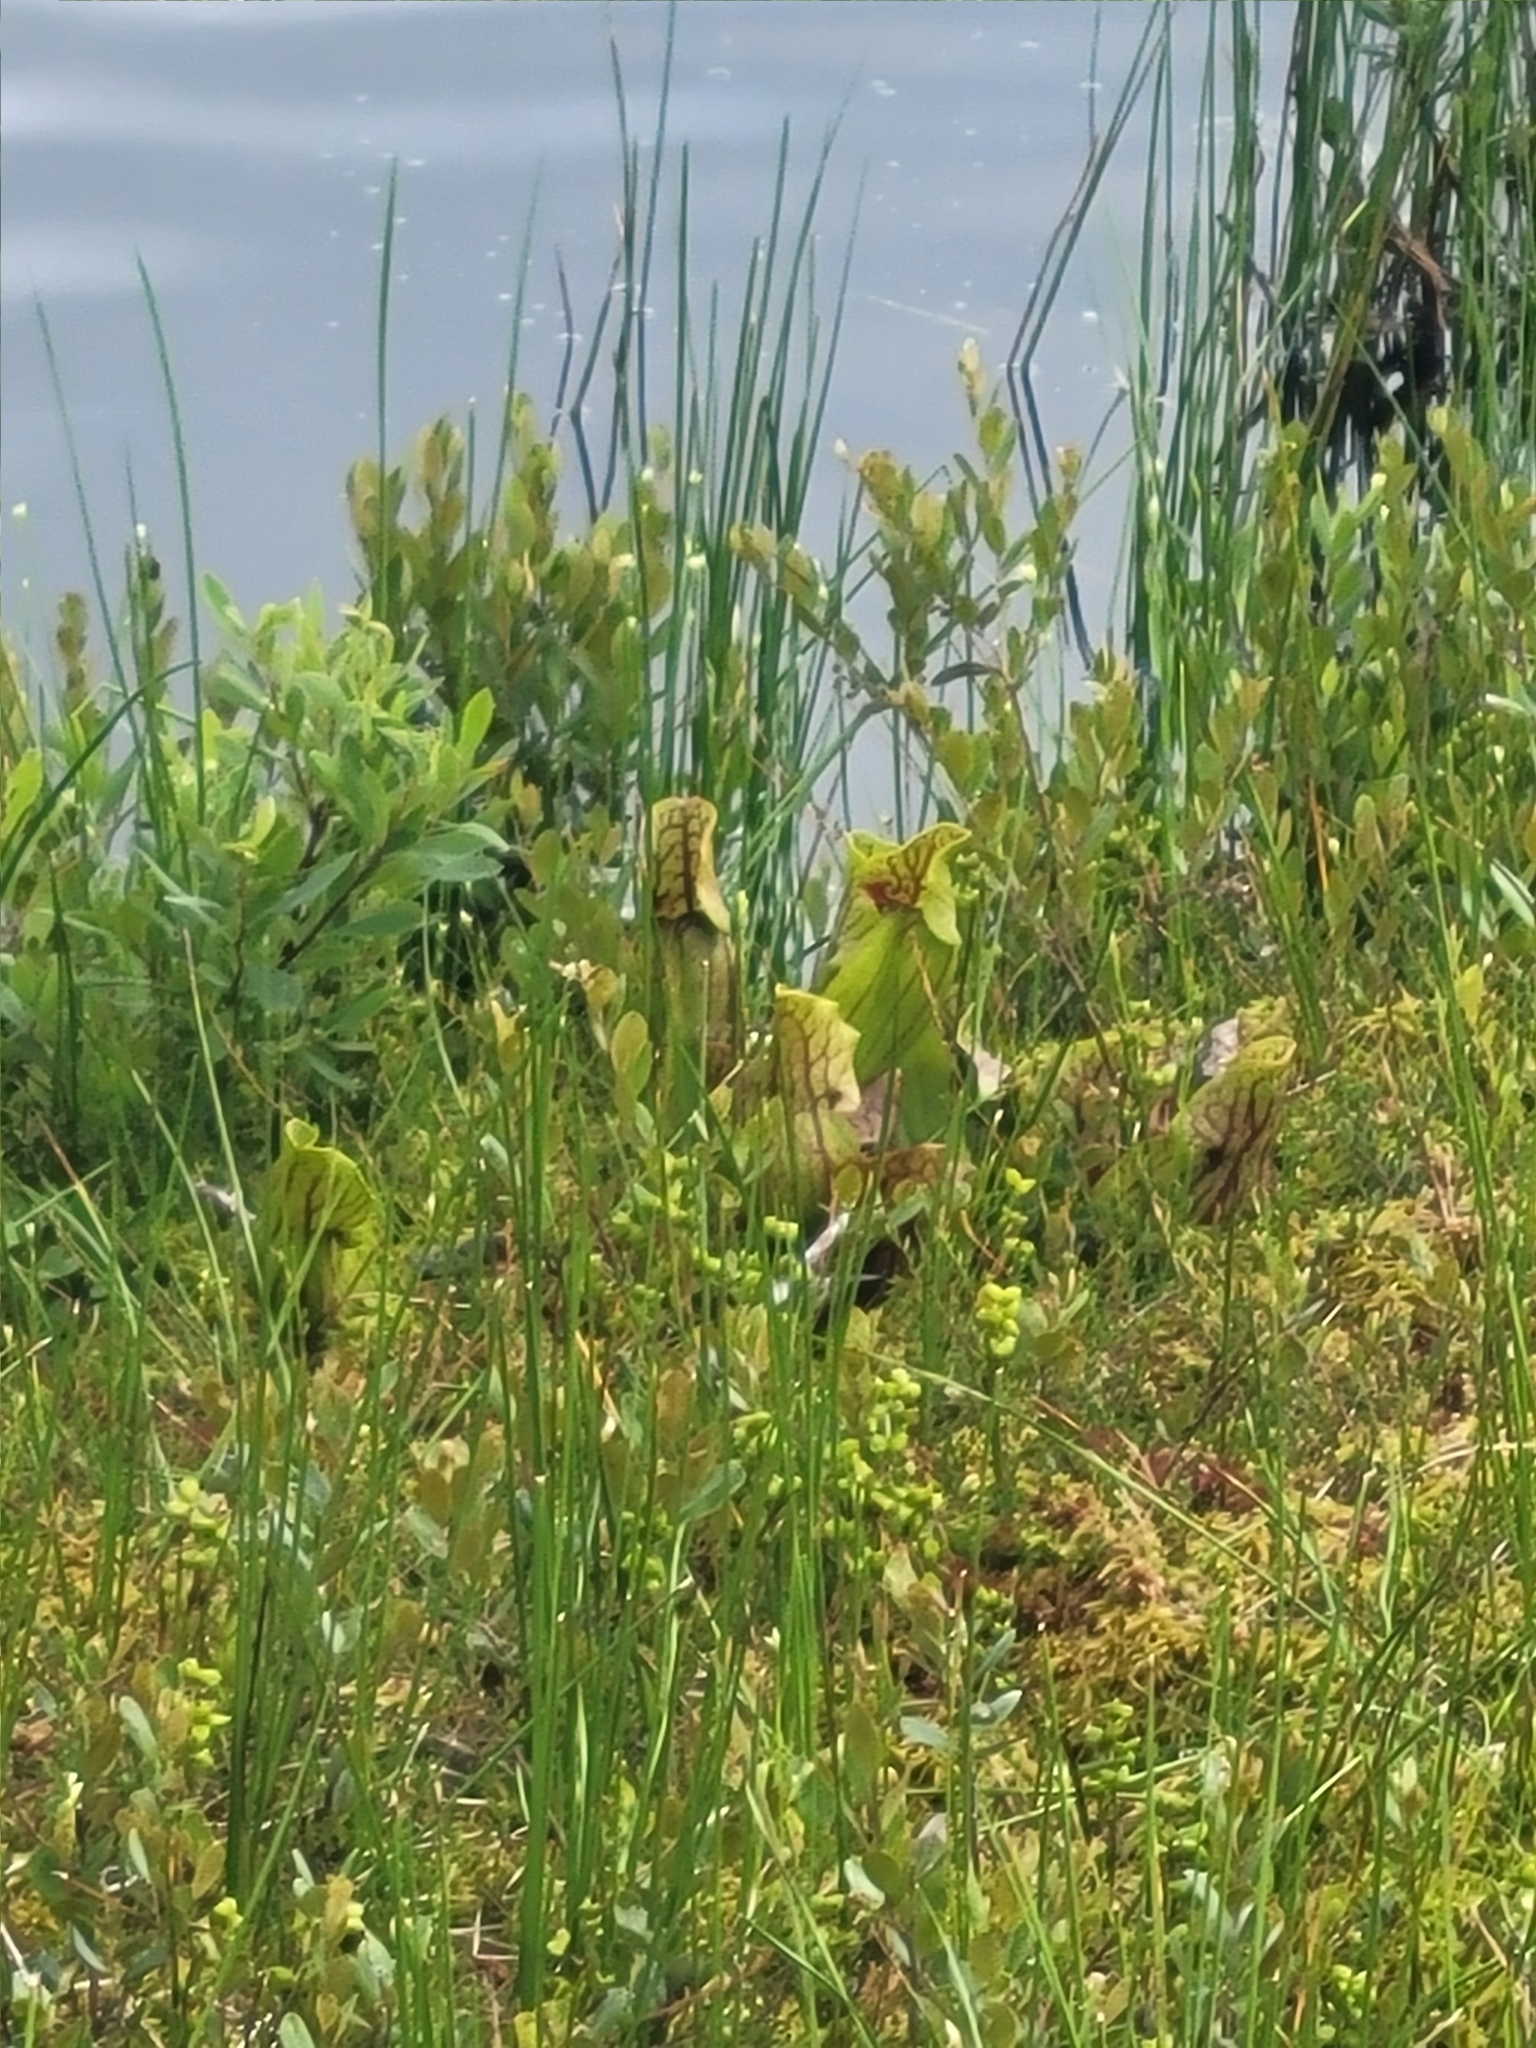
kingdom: Plantae
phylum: Tracheophyta
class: Magnoliopsida
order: Ericales
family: Sarraceniaceae
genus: Sarracenia
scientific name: Sarracenia purpurea
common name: Pitcherplant
